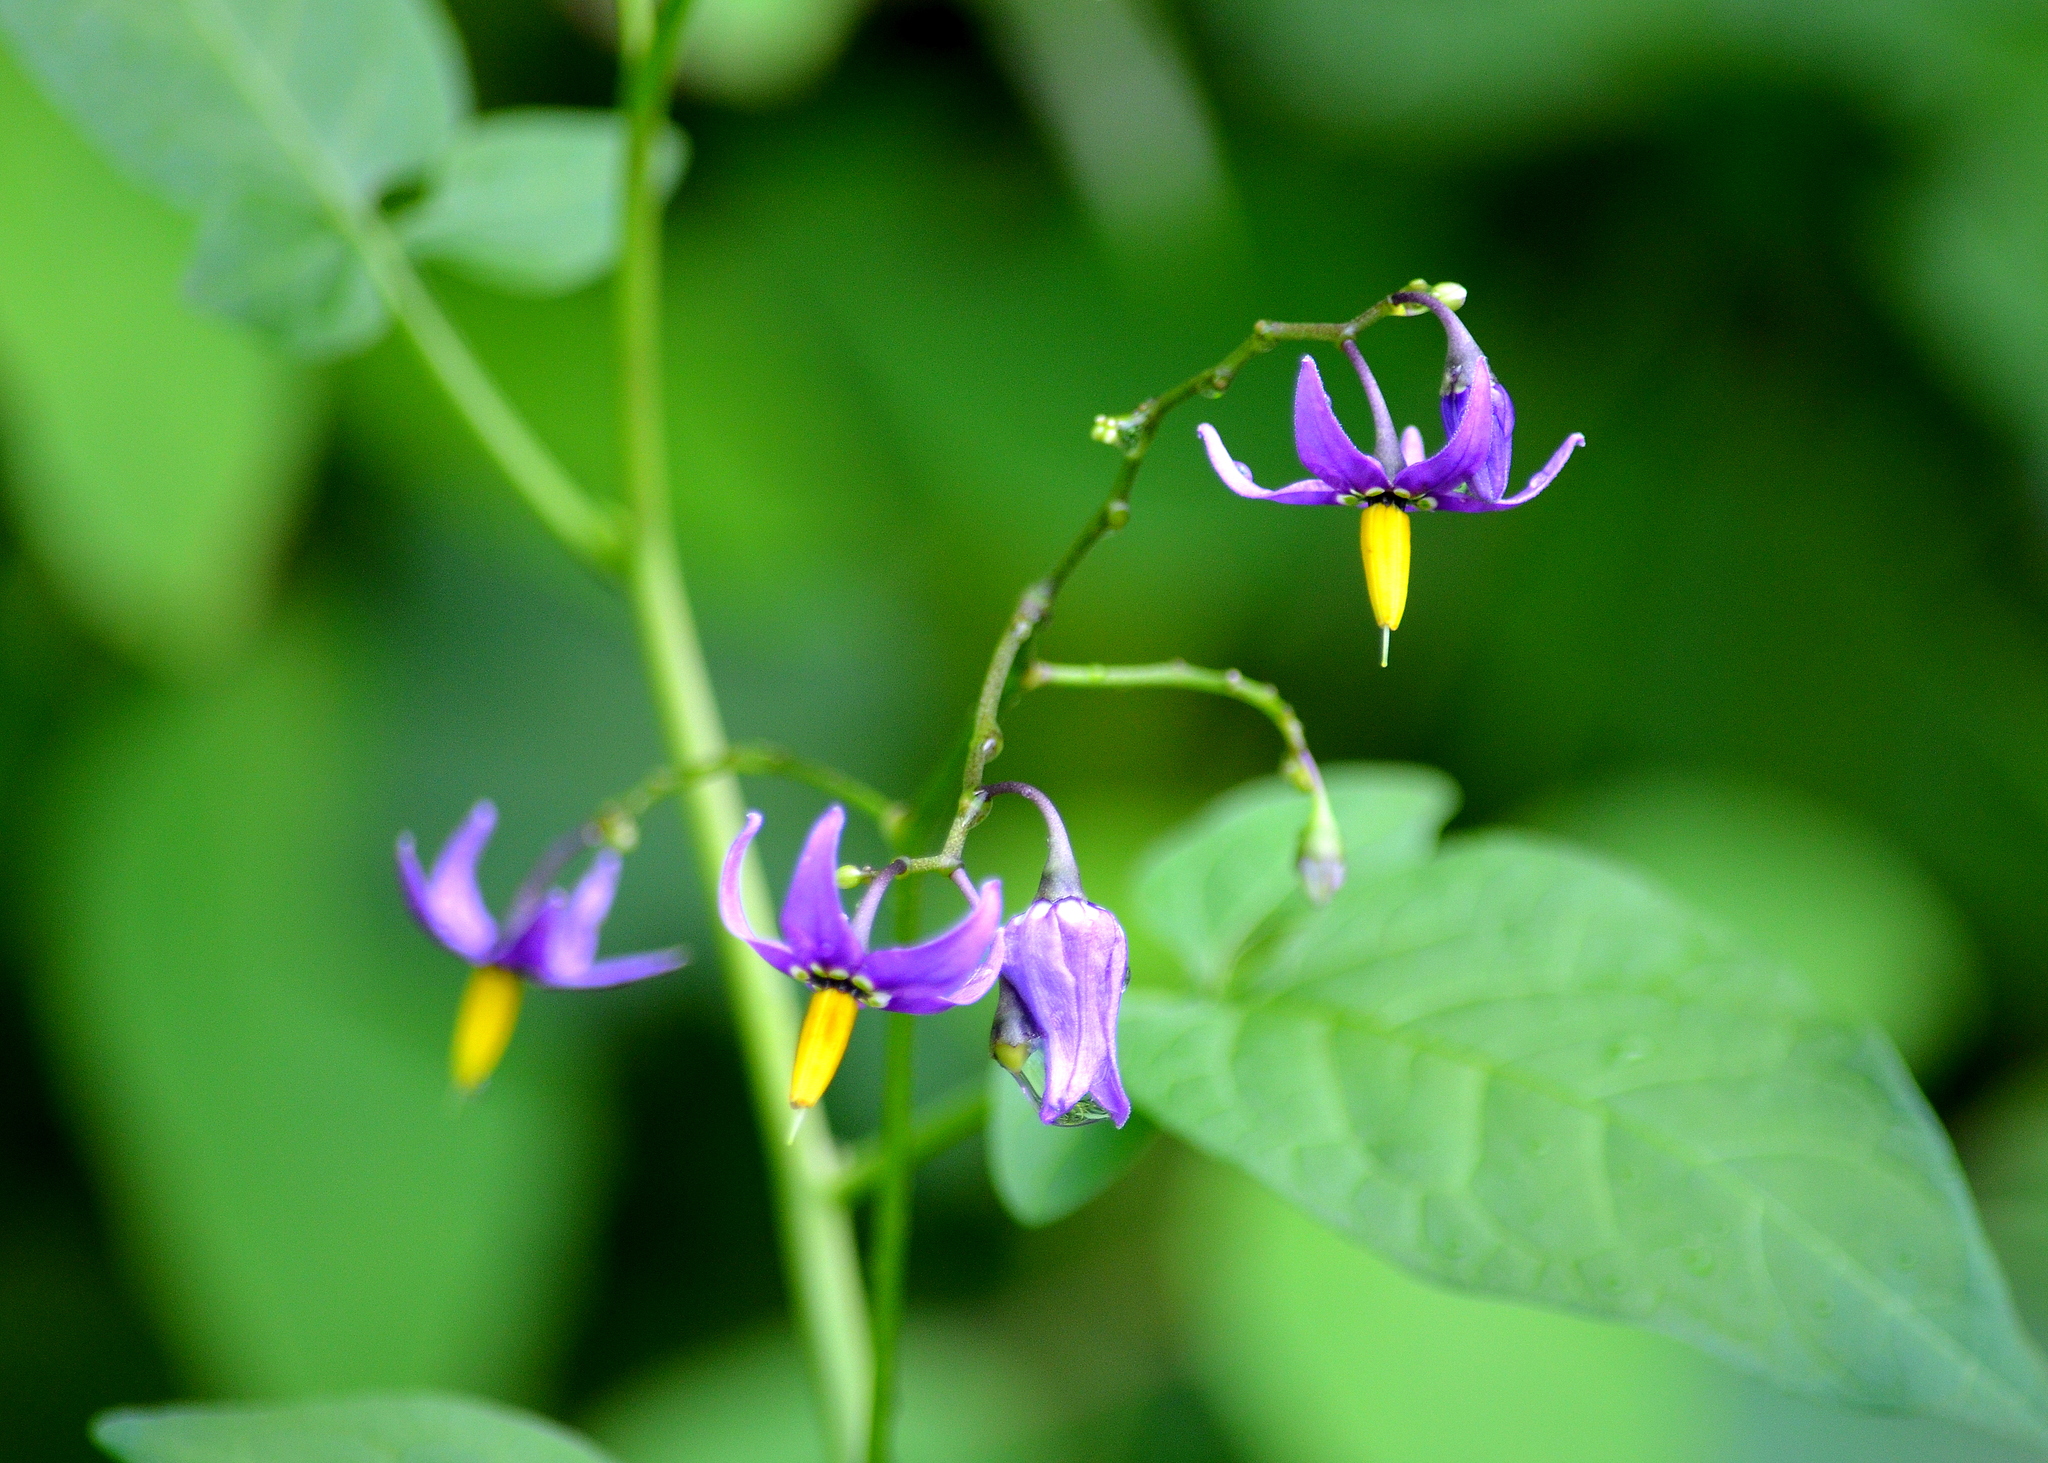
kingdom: Plantae
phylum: Tracheophyta
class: Magnoliopsida
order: Solanales
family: Solanaceae
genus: Solanum
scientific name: Solanum dulcamara
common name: Climbing nightshade
